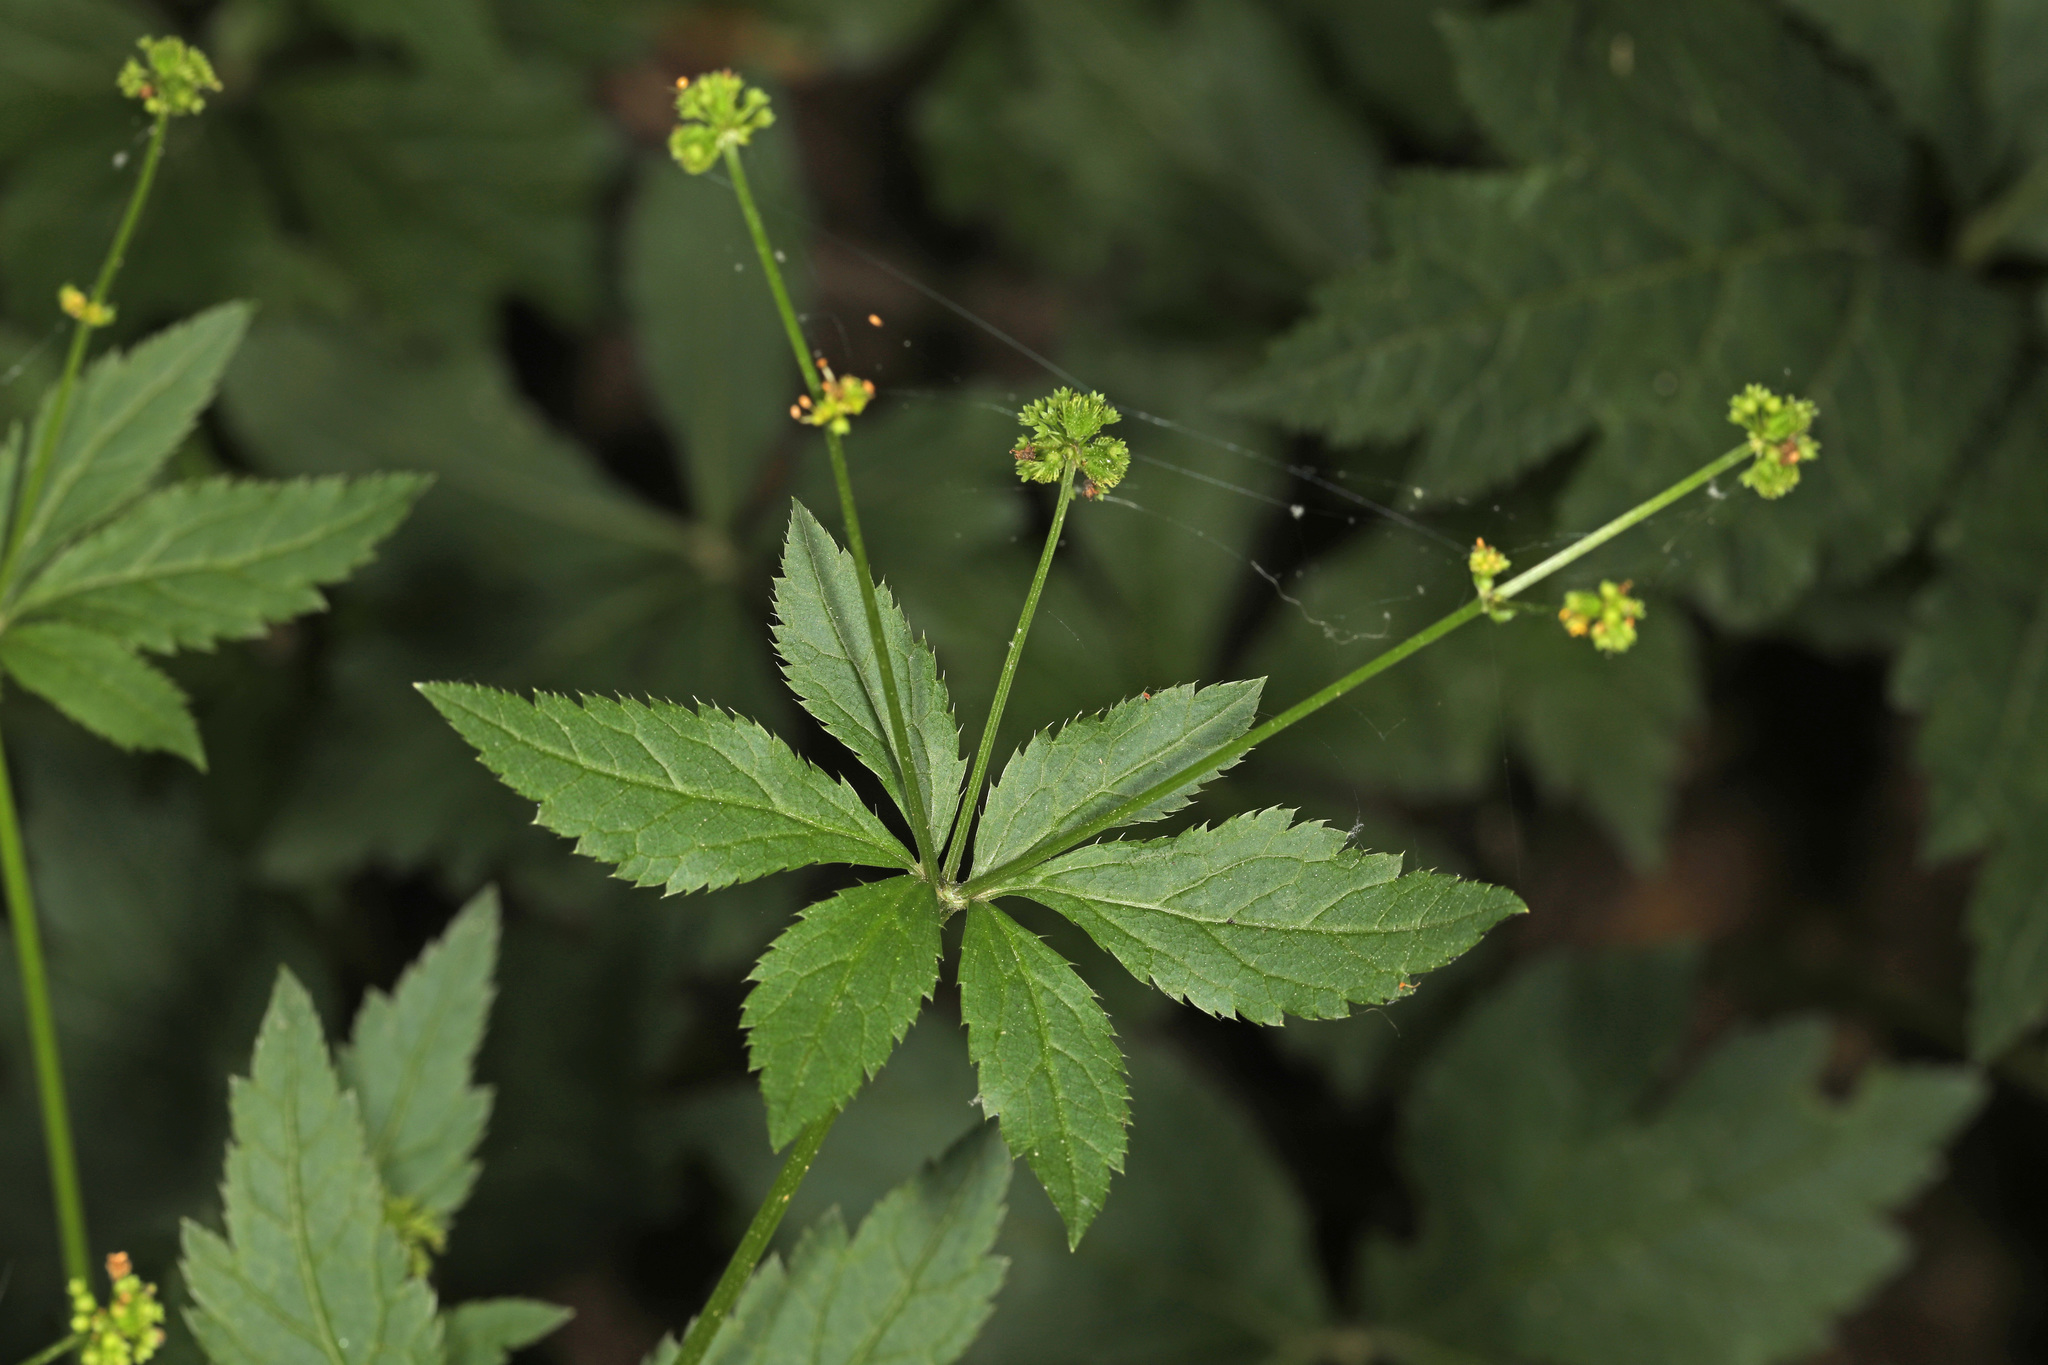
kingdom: Plantae
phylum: Tracheophyta
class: Magnoliopsida
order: Apiales
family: Apiaceae
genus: Sanicula
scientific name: Sanicula odorata
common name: Cluster sanicle
